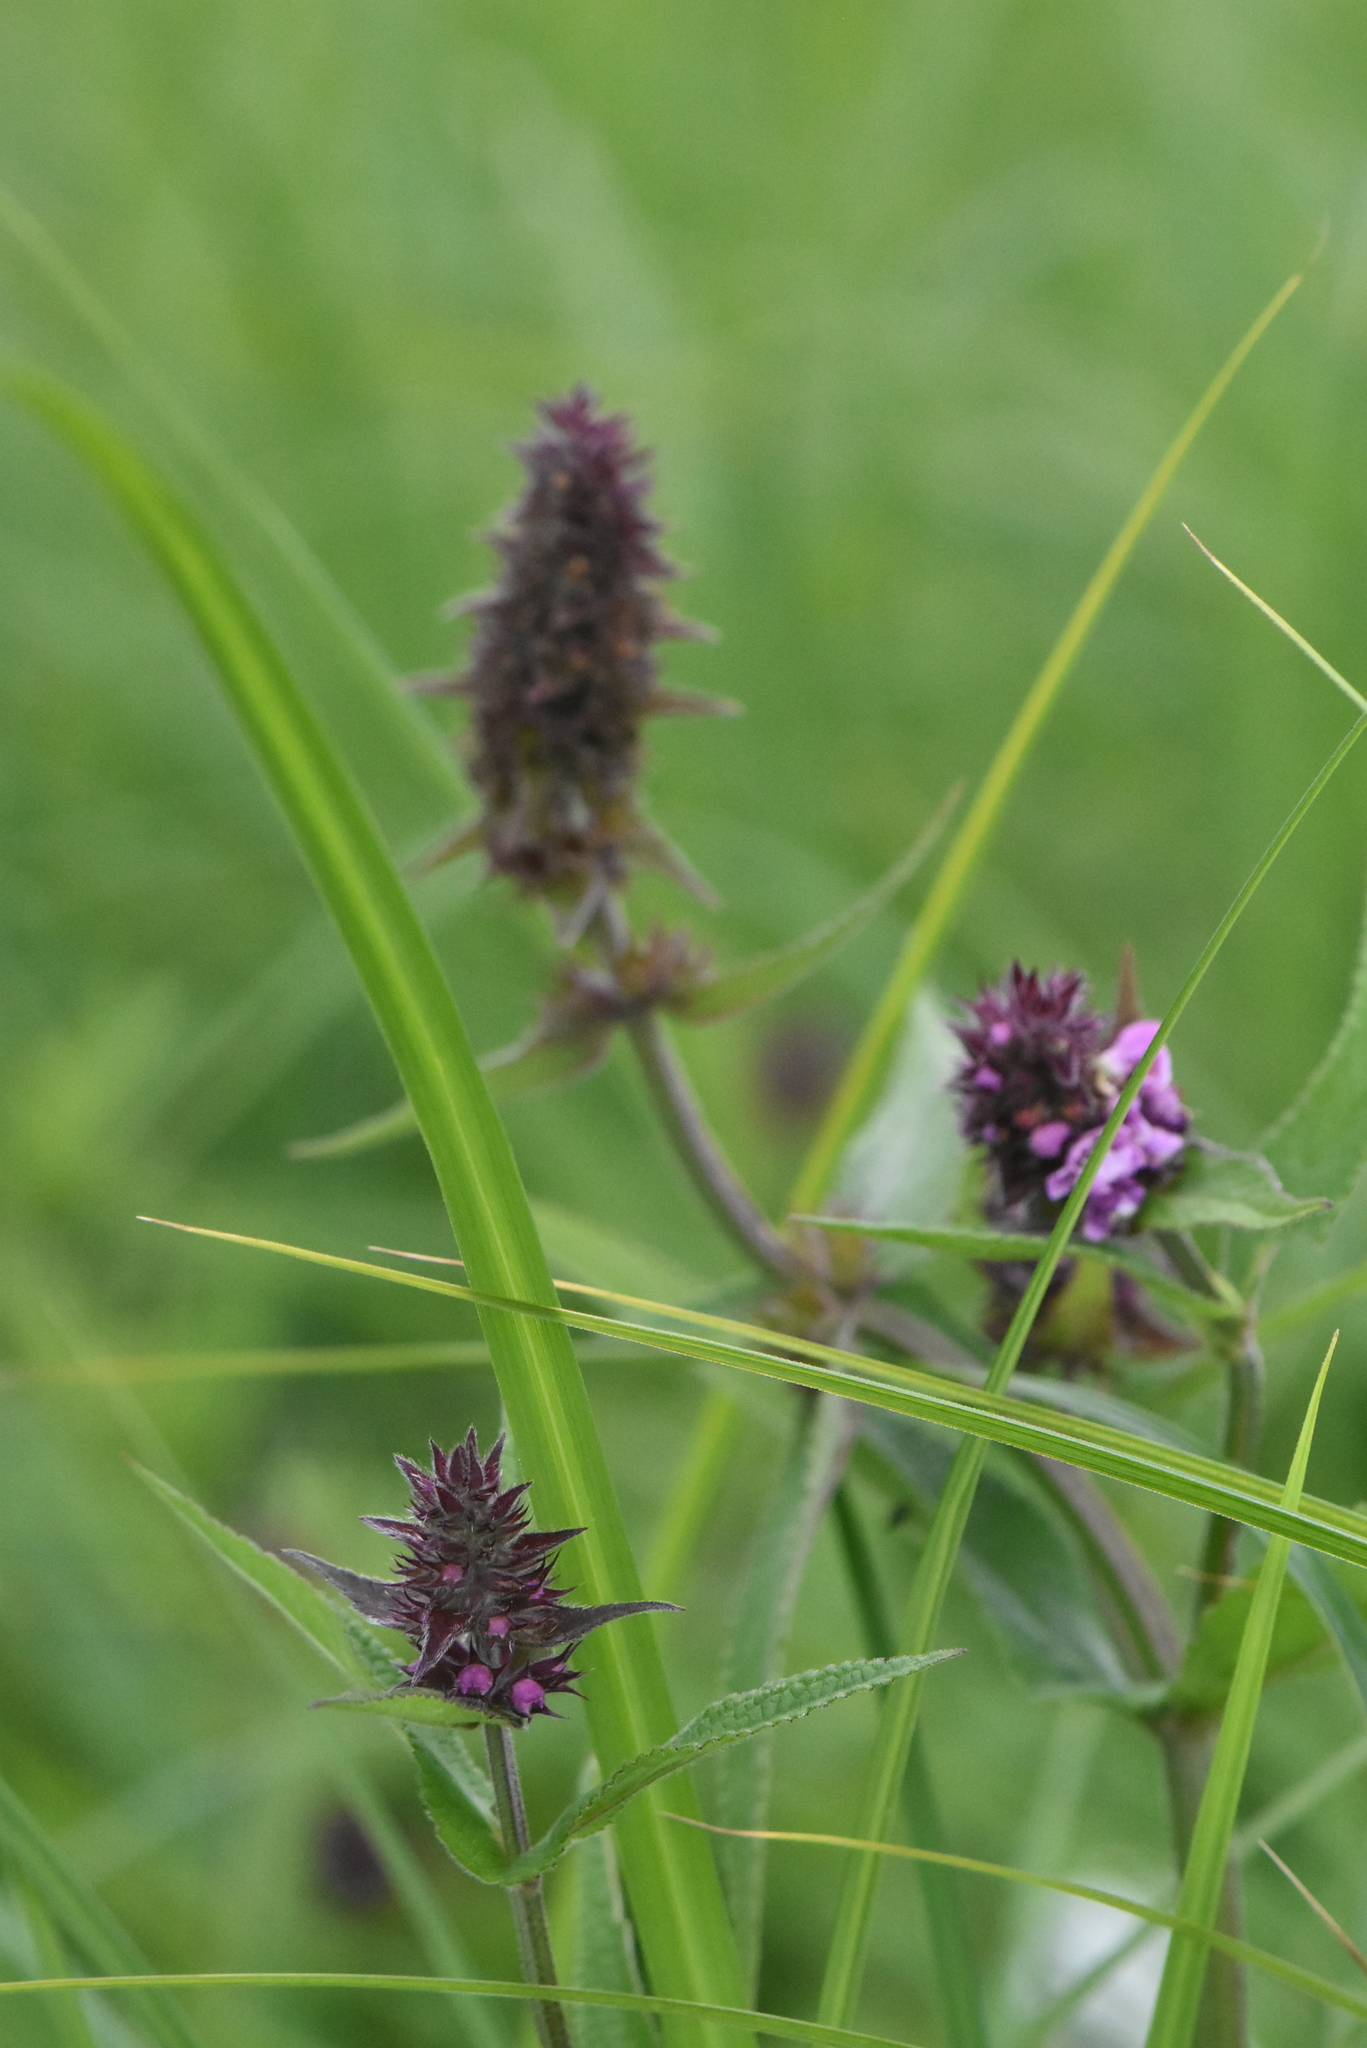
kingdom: Plantae
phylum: Tracheophyta
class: Magnoliopsida
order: Lamiales
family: Lamiaceae
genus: Stachys
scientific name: Stachys palustris
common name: Marsh woundwort
